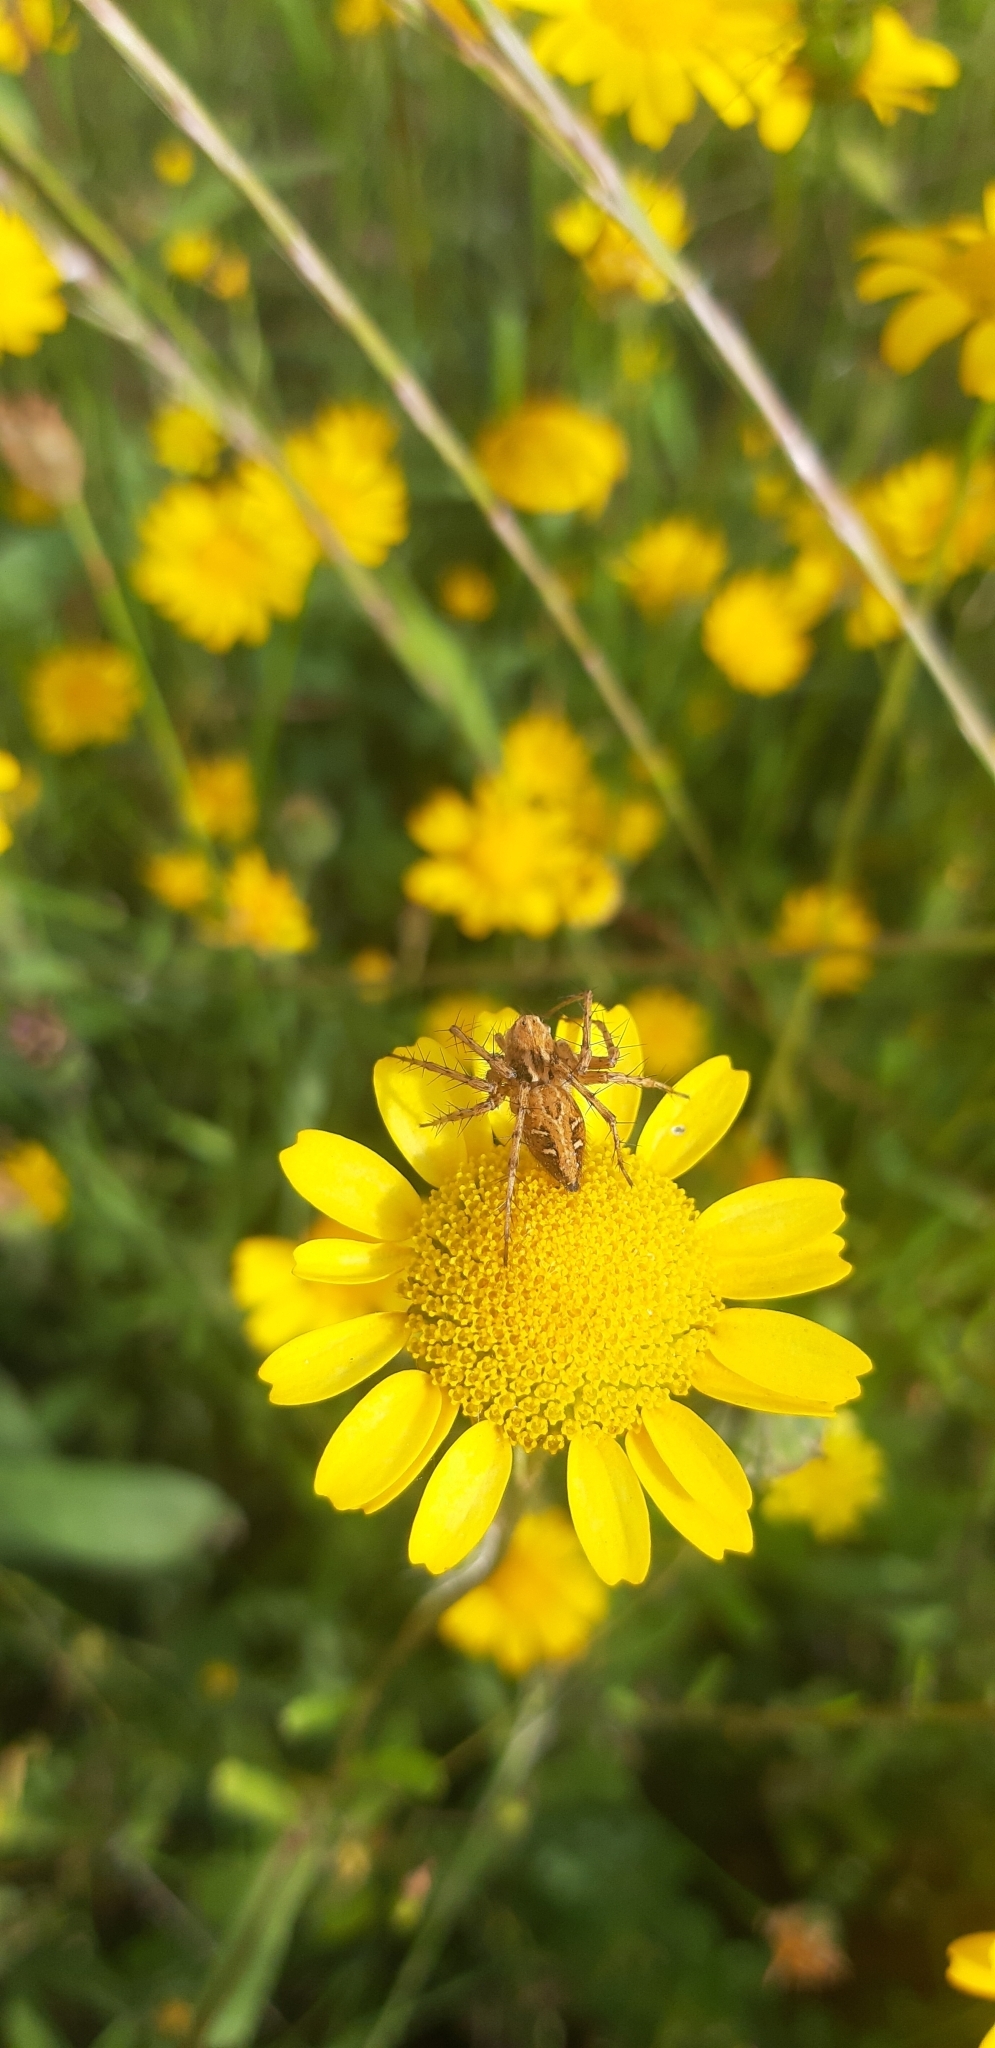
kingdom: Animalia
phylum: Arthropoda
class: Arachnida
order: Araneae
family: Oxyopidae
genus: Oxyopes
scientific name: Oxyopes heterophthalmus
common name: Lynx spider
